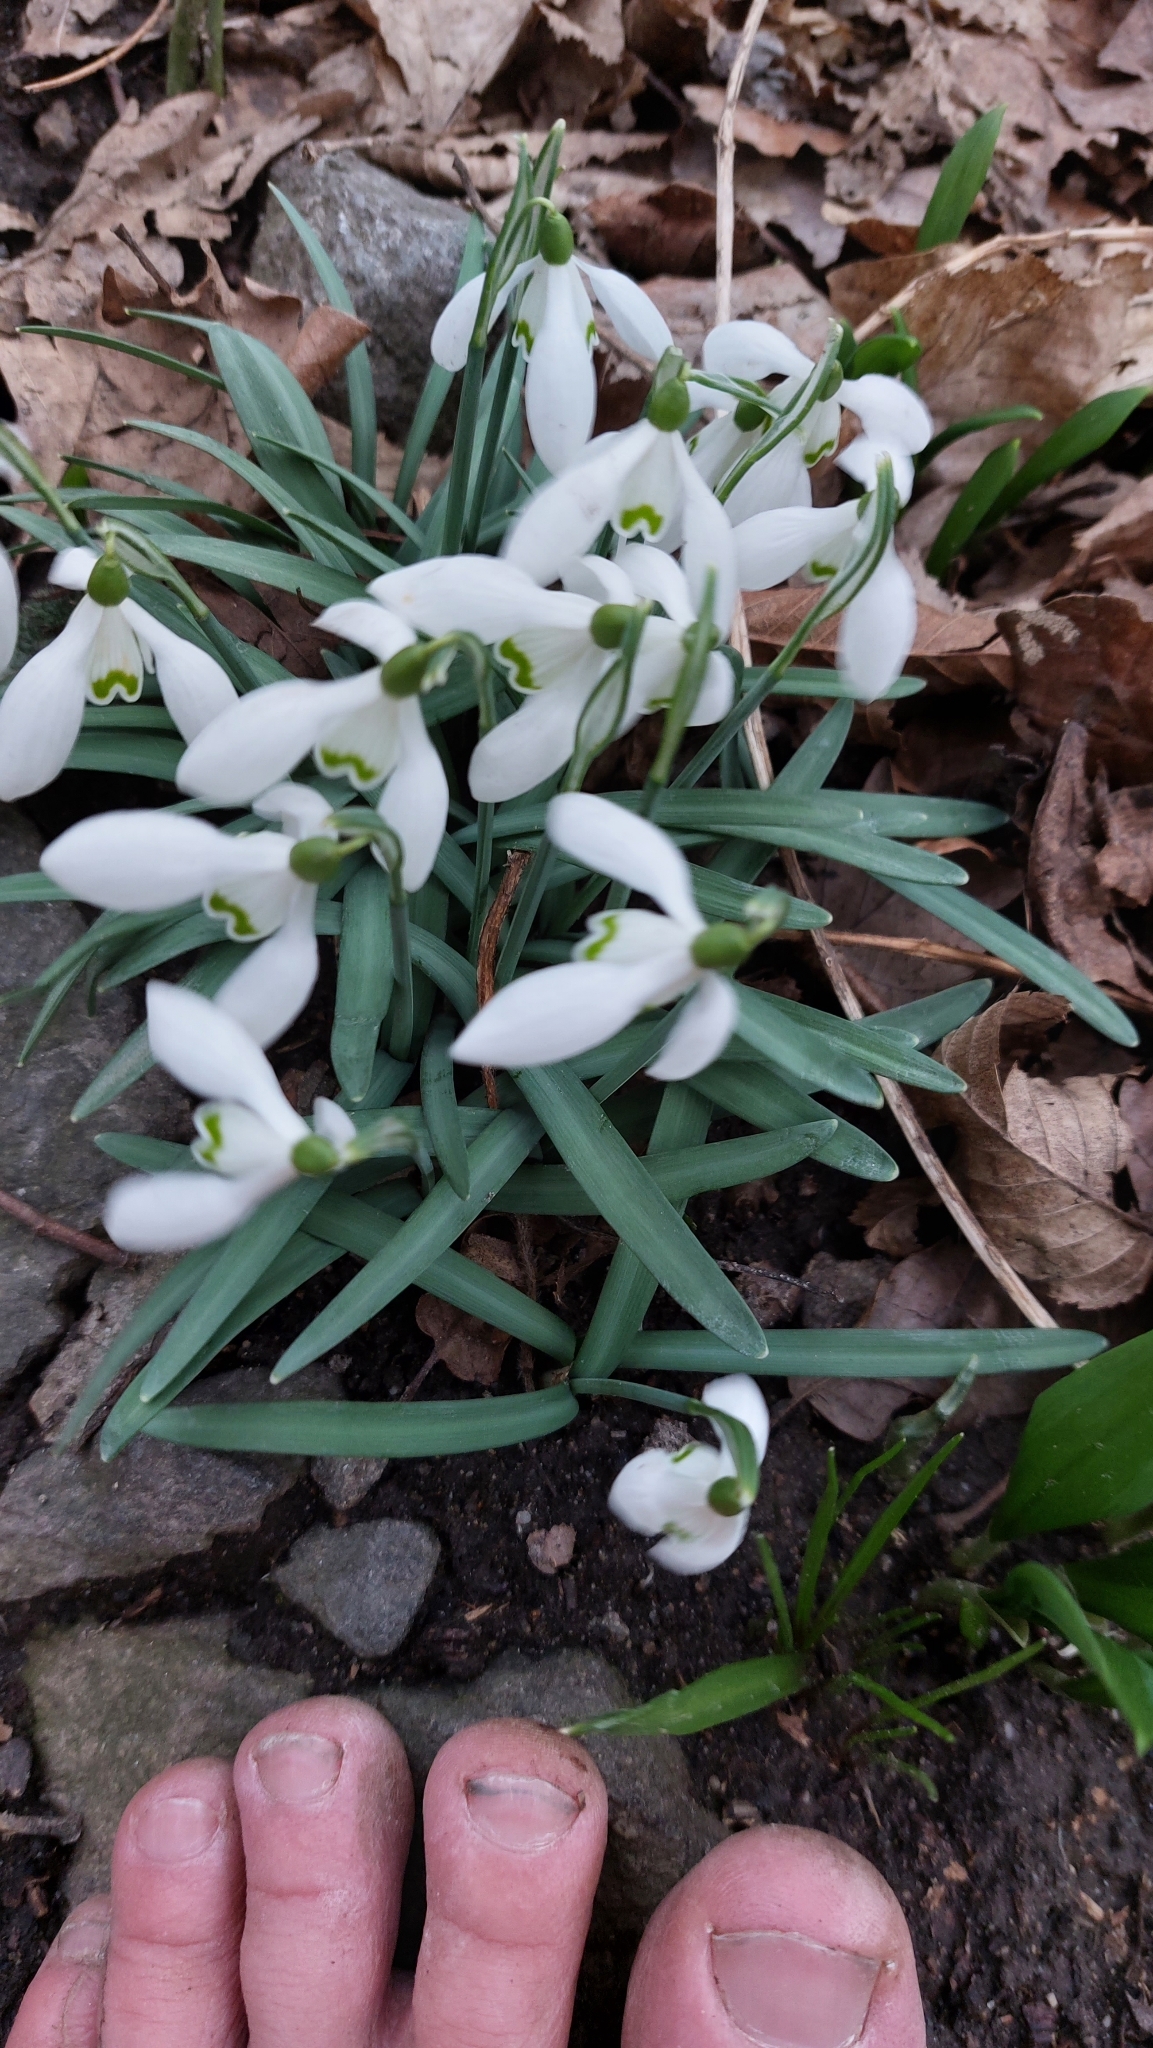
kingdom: Plantae
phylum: Tracheophyta
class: Liliopsida
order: Asparagales
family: Amaryllidaceae
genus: Galanthus
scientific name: Galanthus nivalis
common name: Snowdrop
